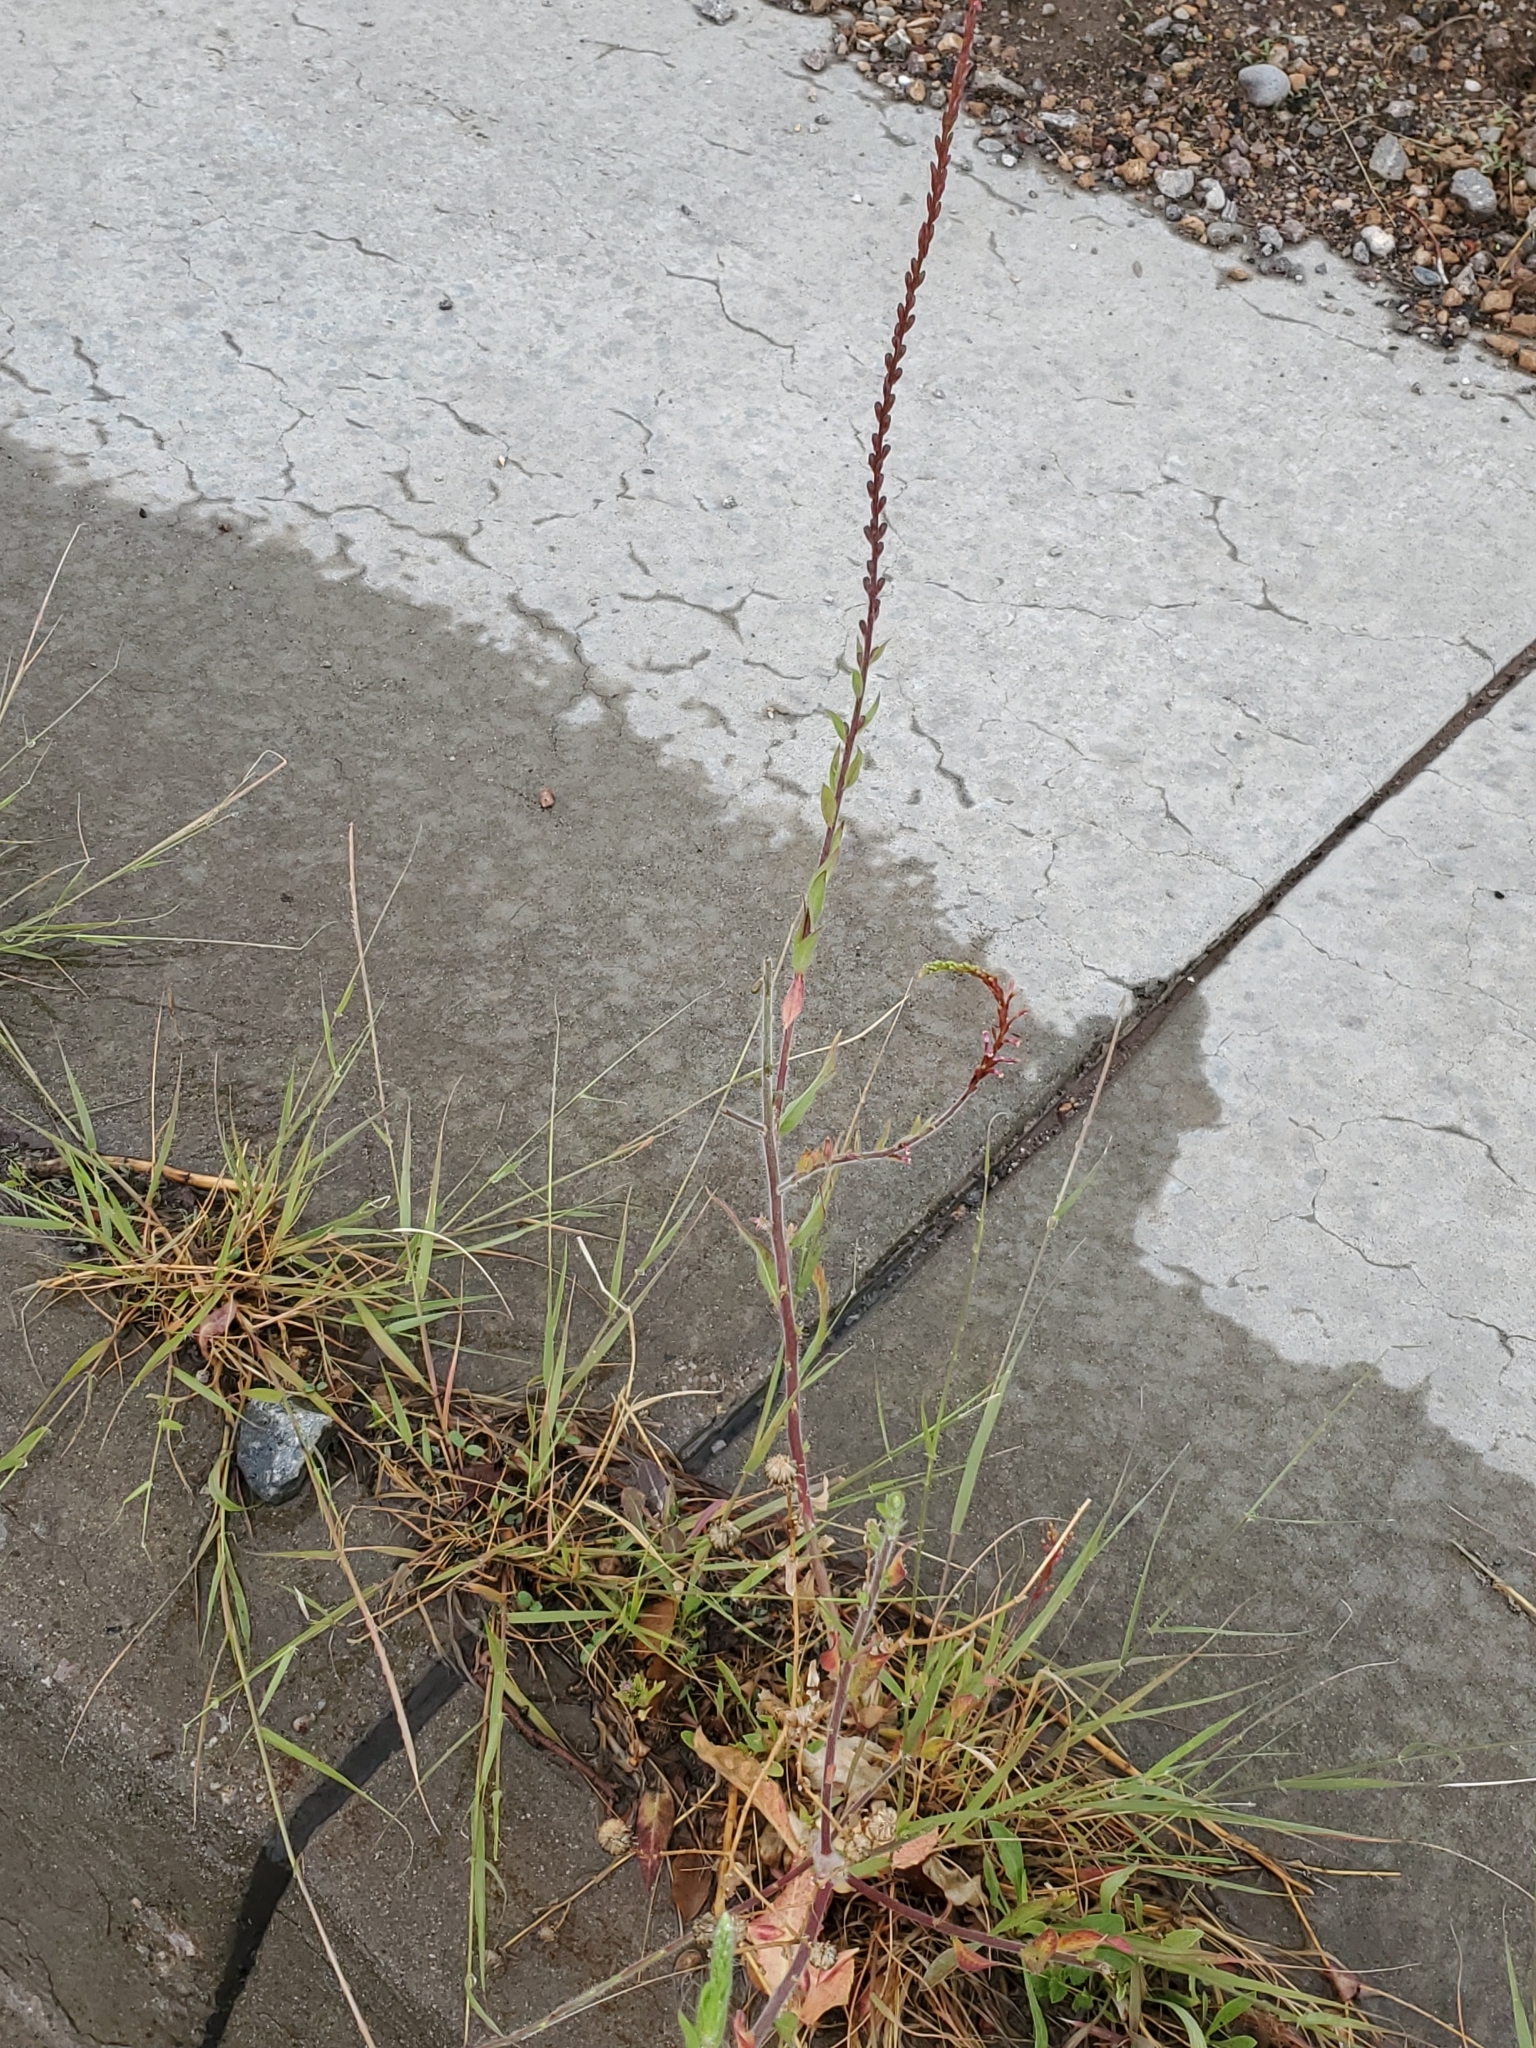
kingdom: Plantae
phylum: Tracheophyta
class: Magnoliopsida
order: Myrtales
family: Onagraceae
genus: Oenothera
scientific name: Oenothera curtiflora
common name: Velvetweed
